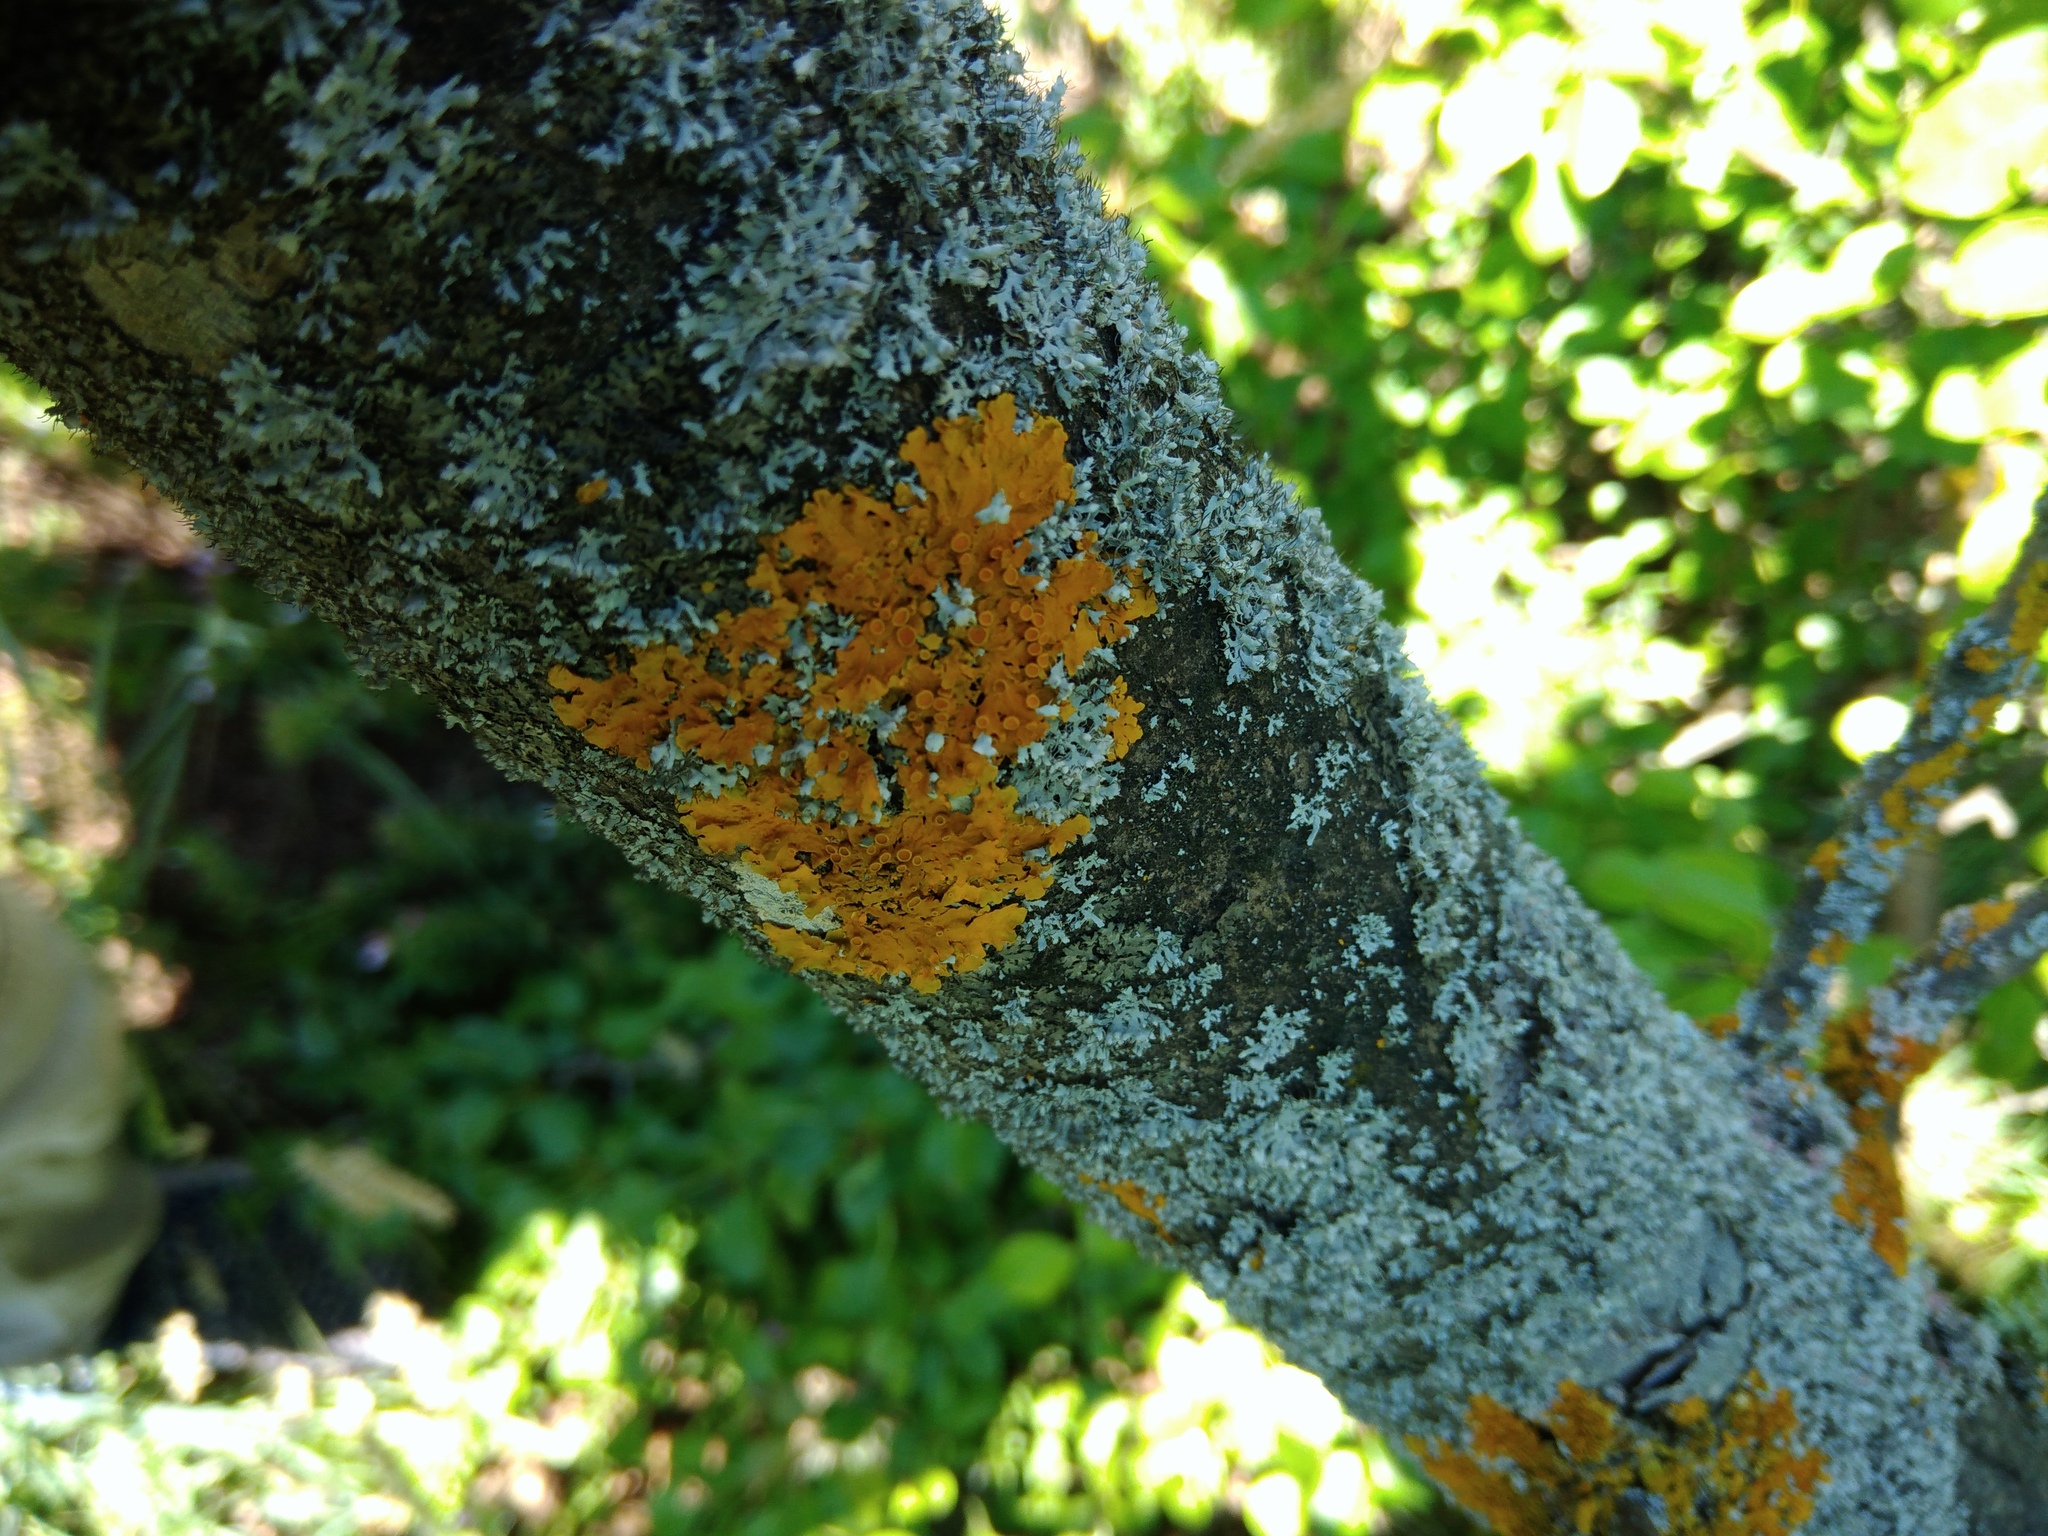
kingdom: Fungi
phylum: Ascomycota
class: Lecanoromycetes
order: Teloschistales
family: Teloschistaceae
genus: Xanthoria
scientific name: Xanthoria parietina
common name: Common orange lichen
